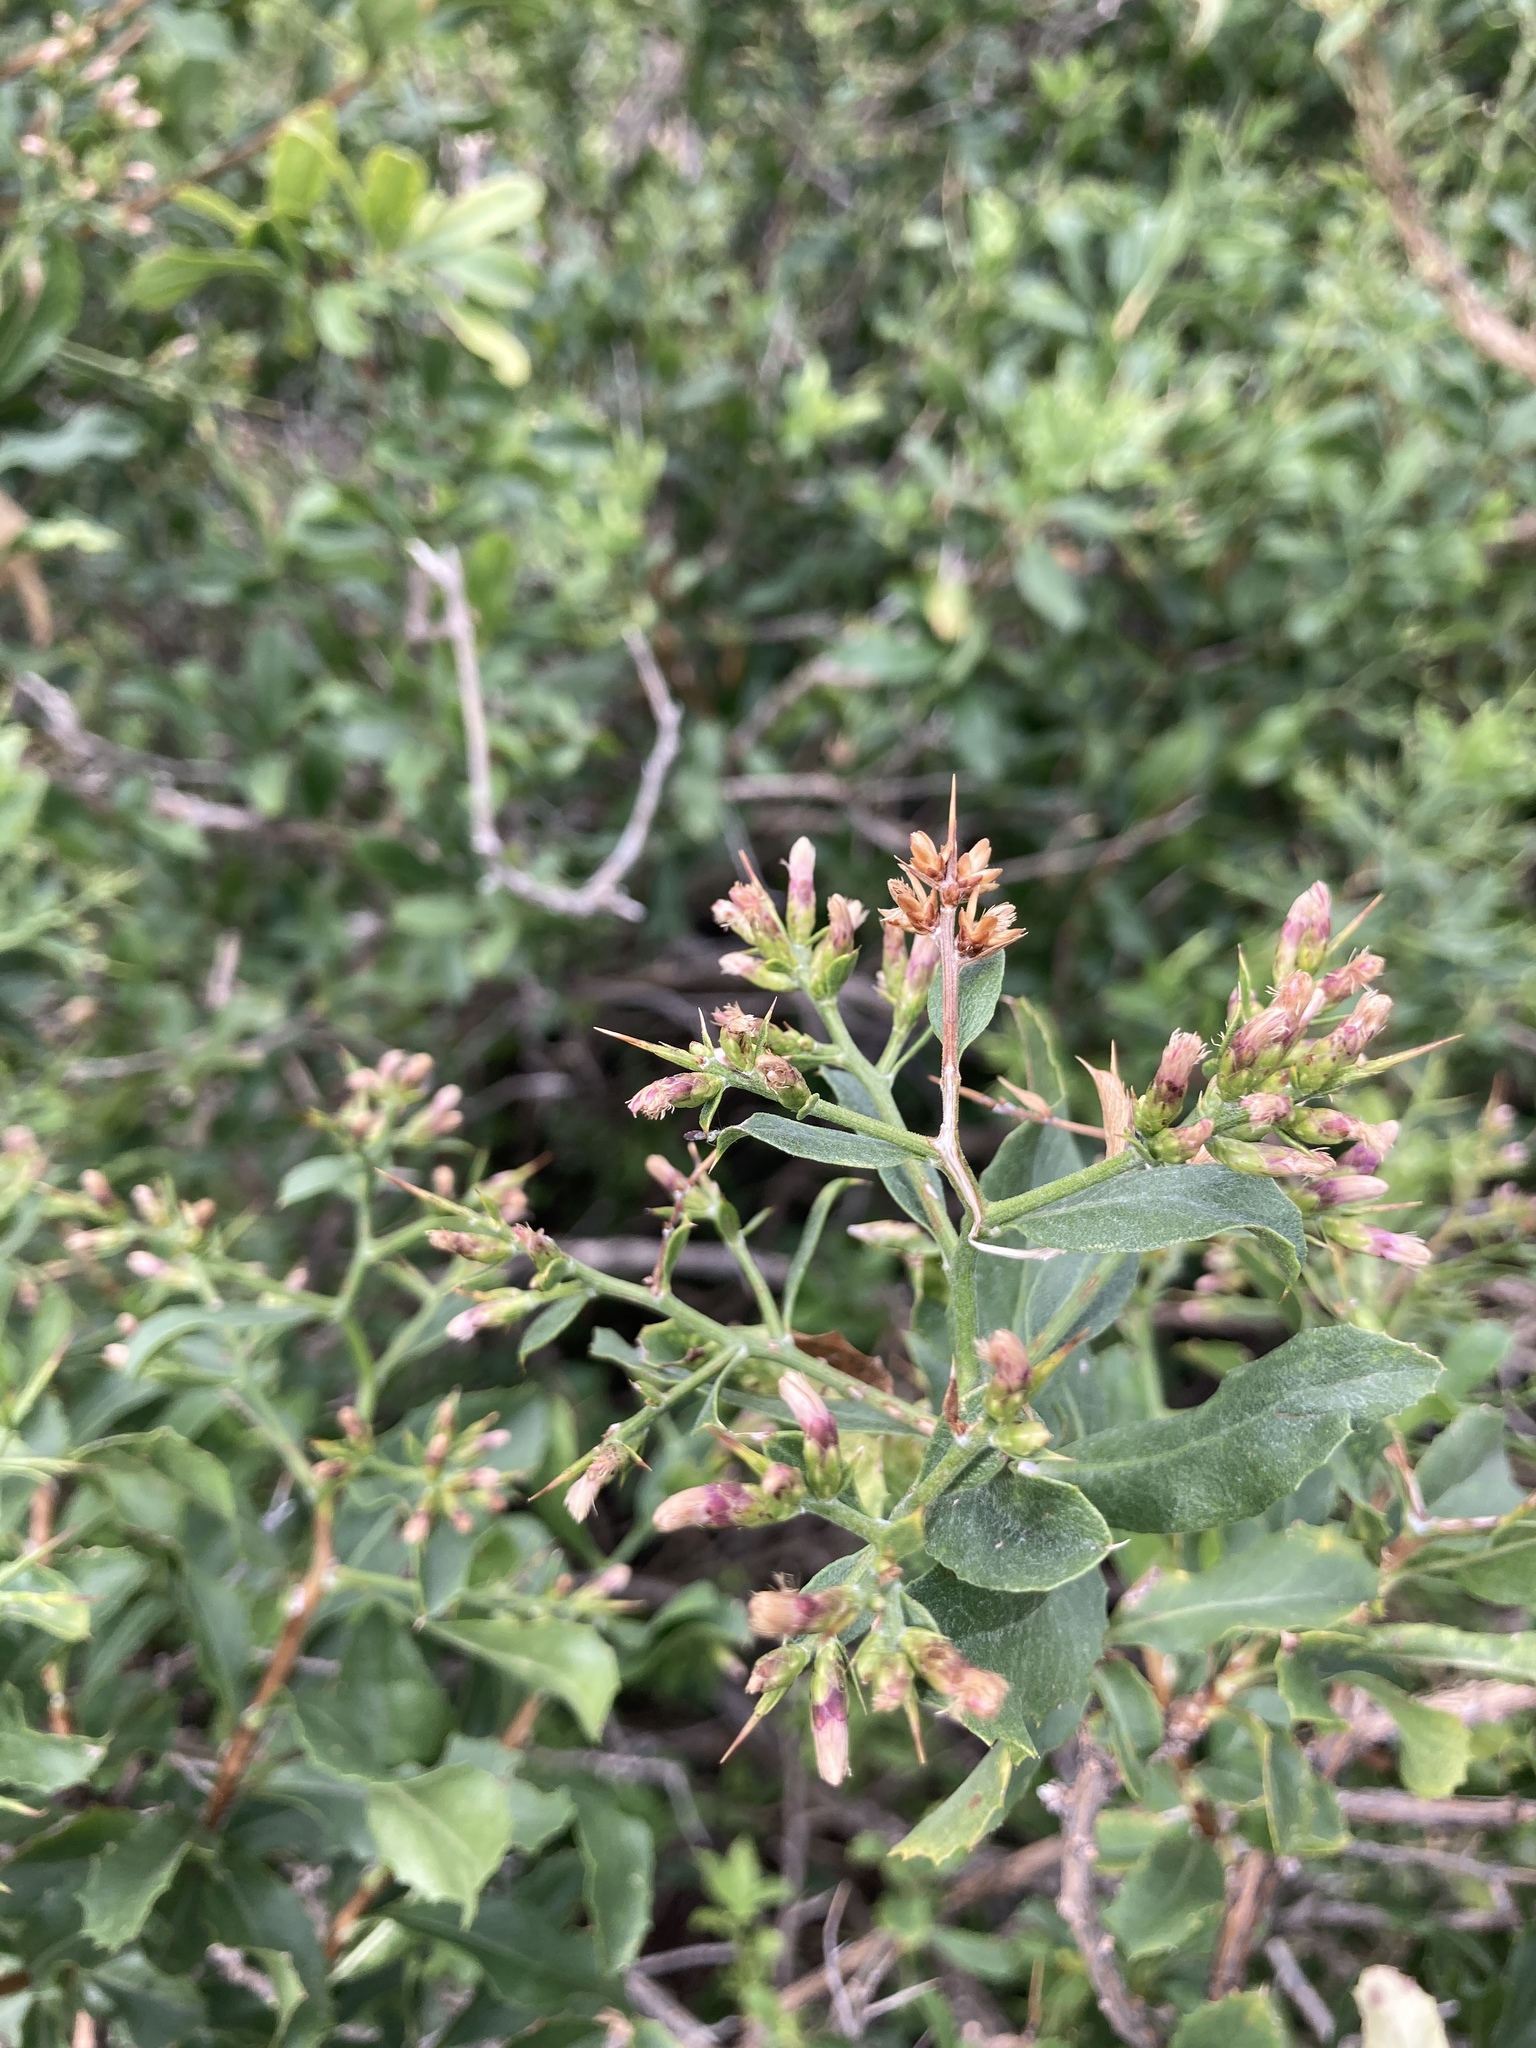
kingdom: Plantae
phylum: Tracheophyta
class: Magnoliopsida
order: Asterales
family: Asteraceae
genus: Proustia
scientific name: Proustia cuneifolia
